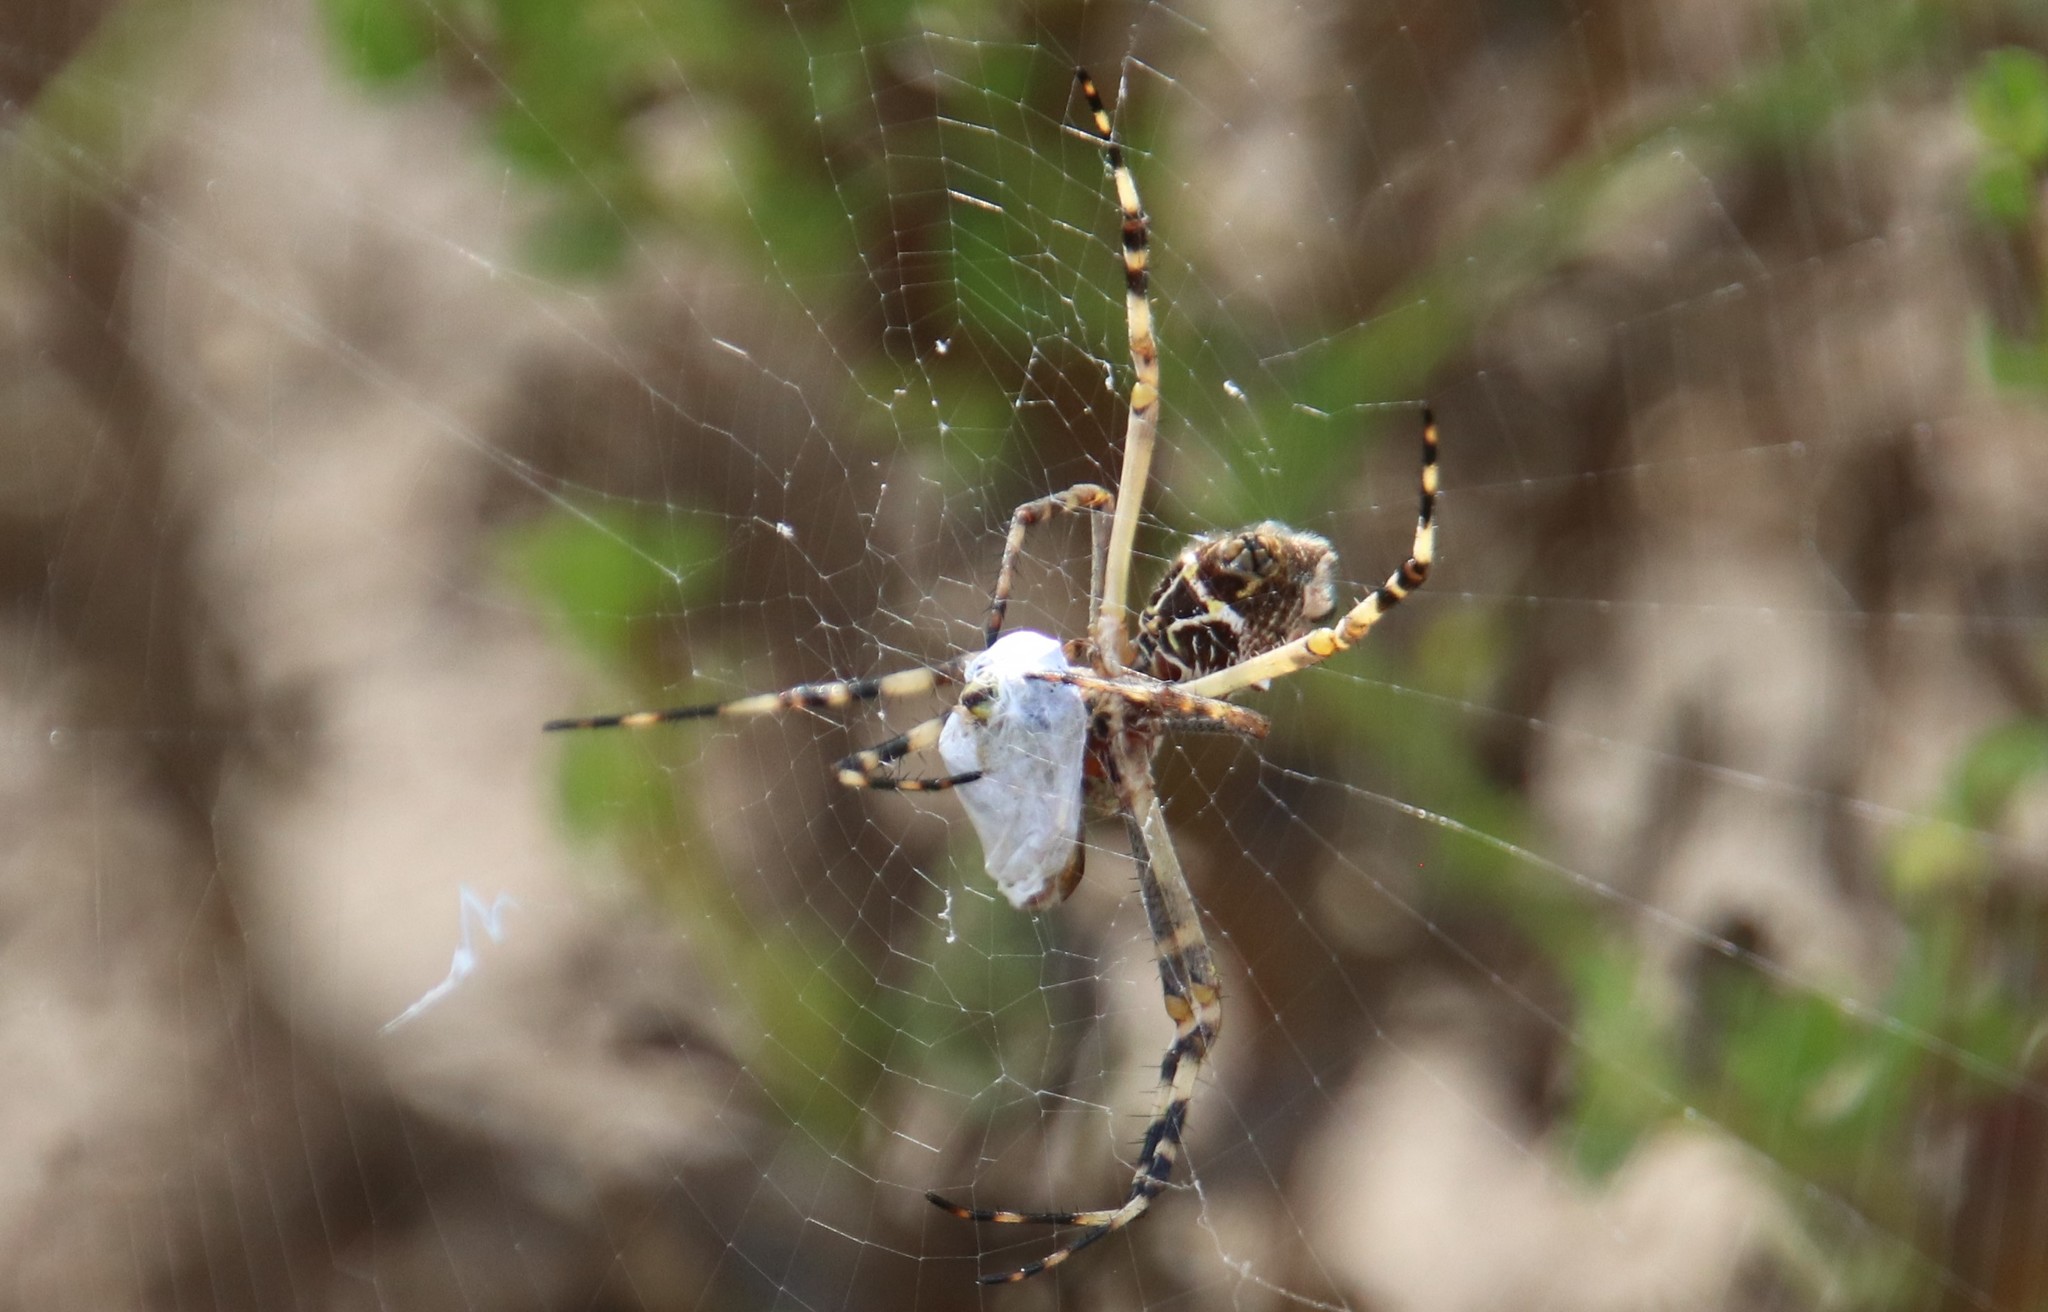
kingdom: Animalia
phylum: Arthropoda
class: Arachnida
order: Araneae
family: Araneidae
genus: Argiope
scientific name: Argiope argentata
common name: Orb weavers
